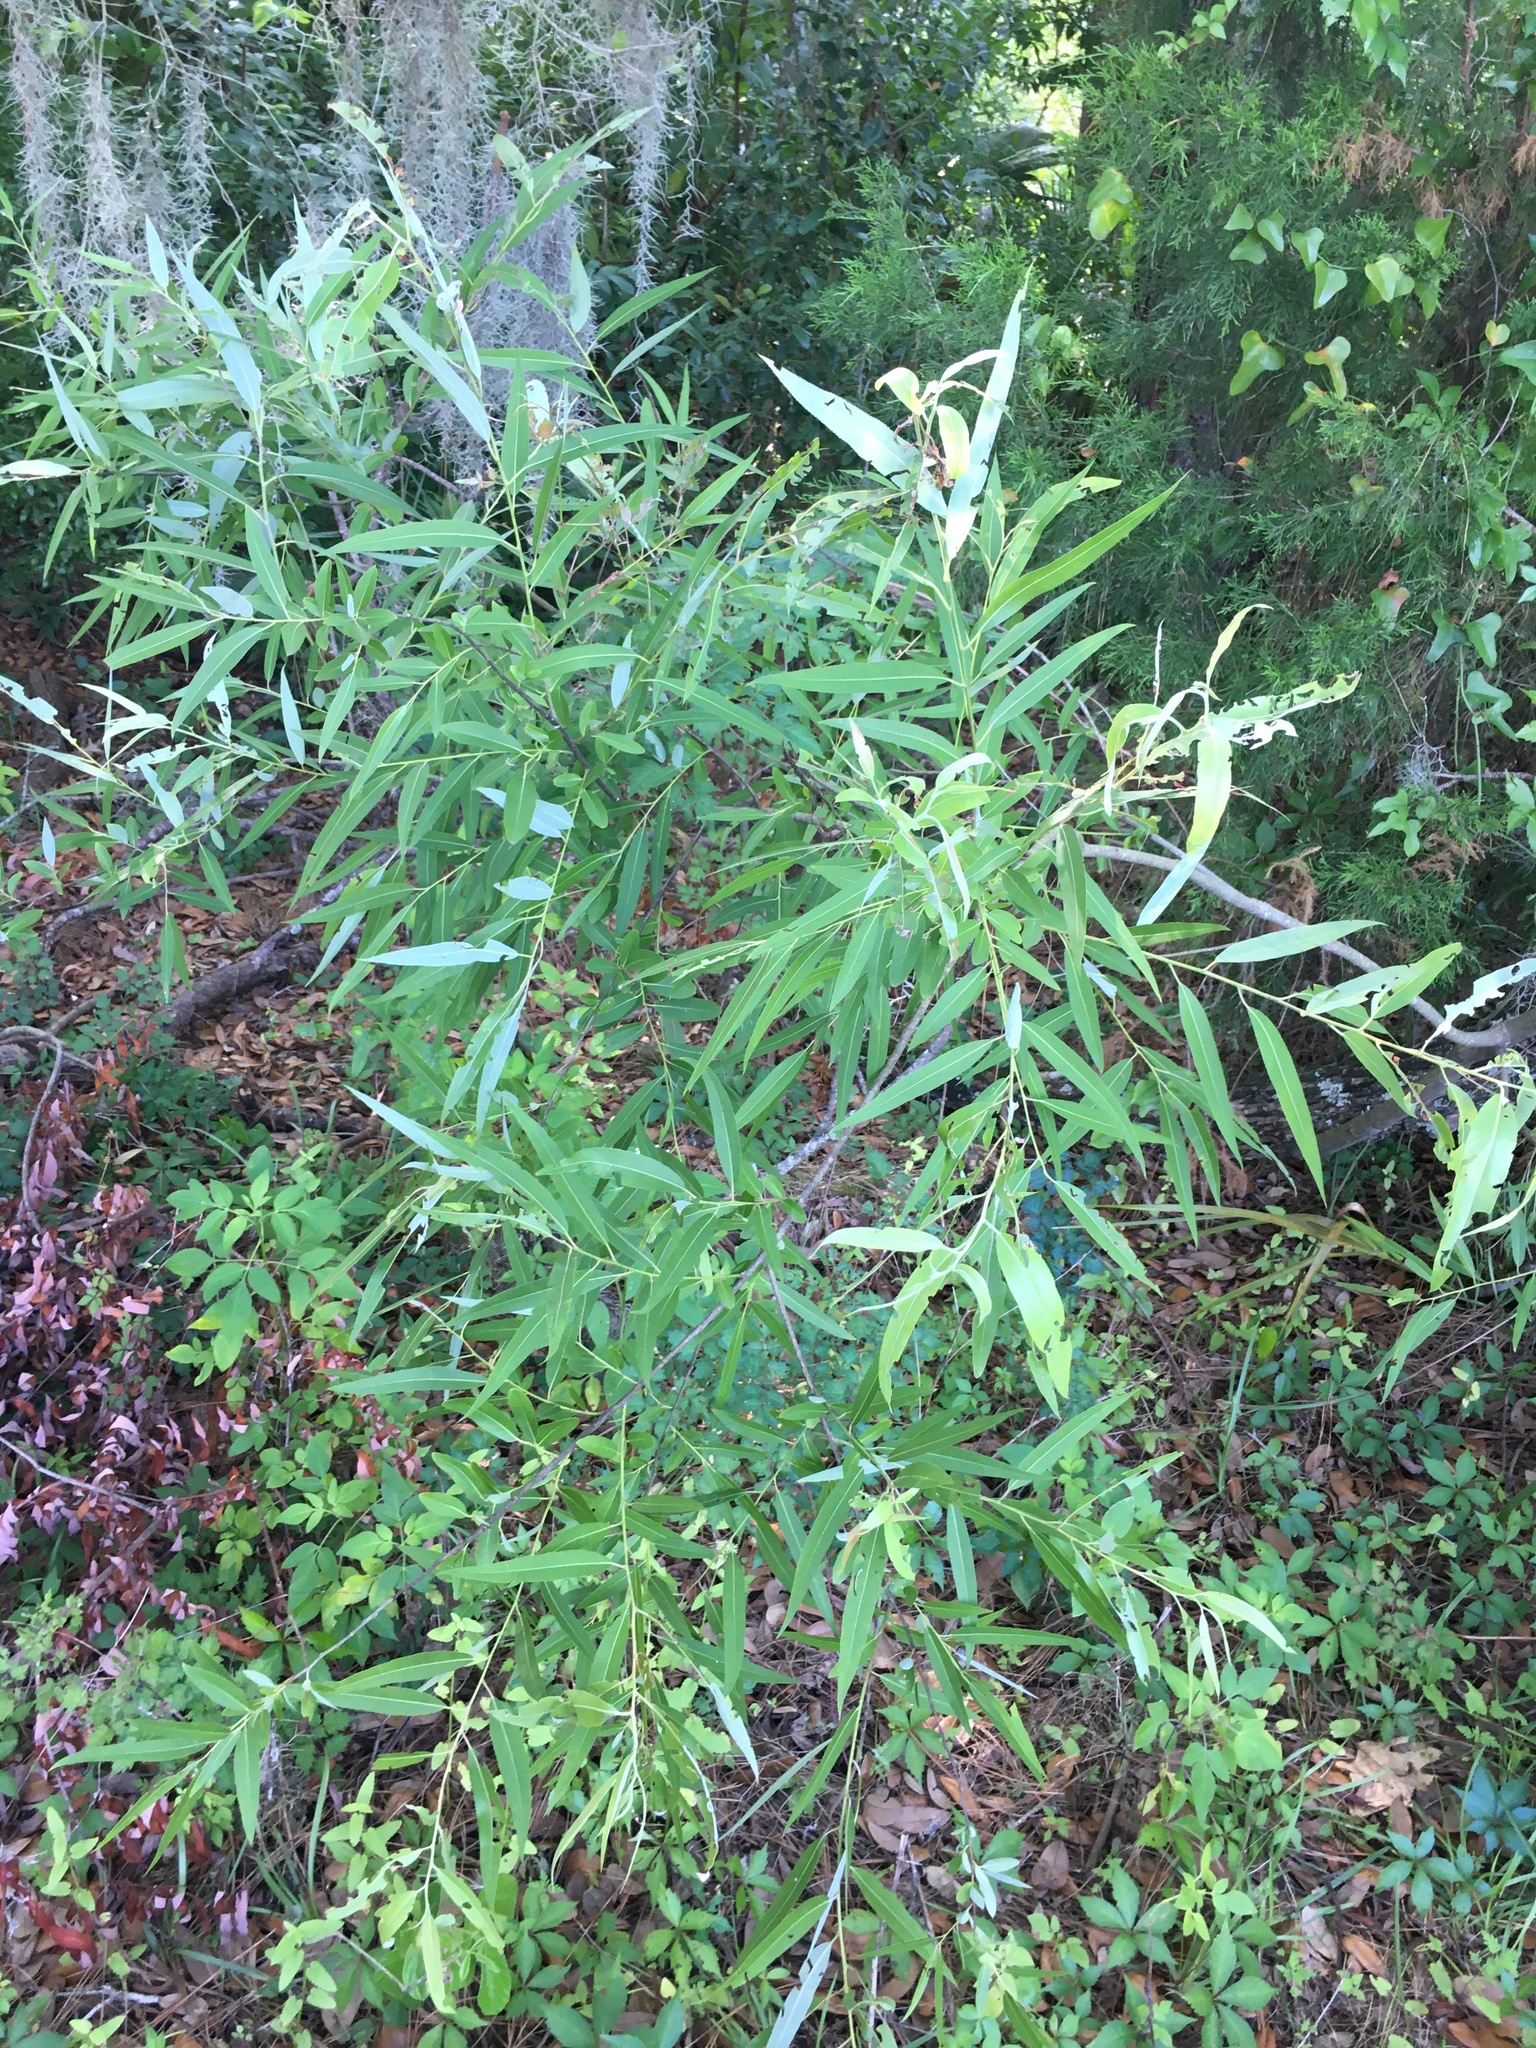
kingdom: Plantae
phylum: Tracheophyta
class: Magnoliopsida
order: Malpighiales
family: Salicaceae
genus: Salix
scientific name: Salix caroliniana
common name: Carolina willow
